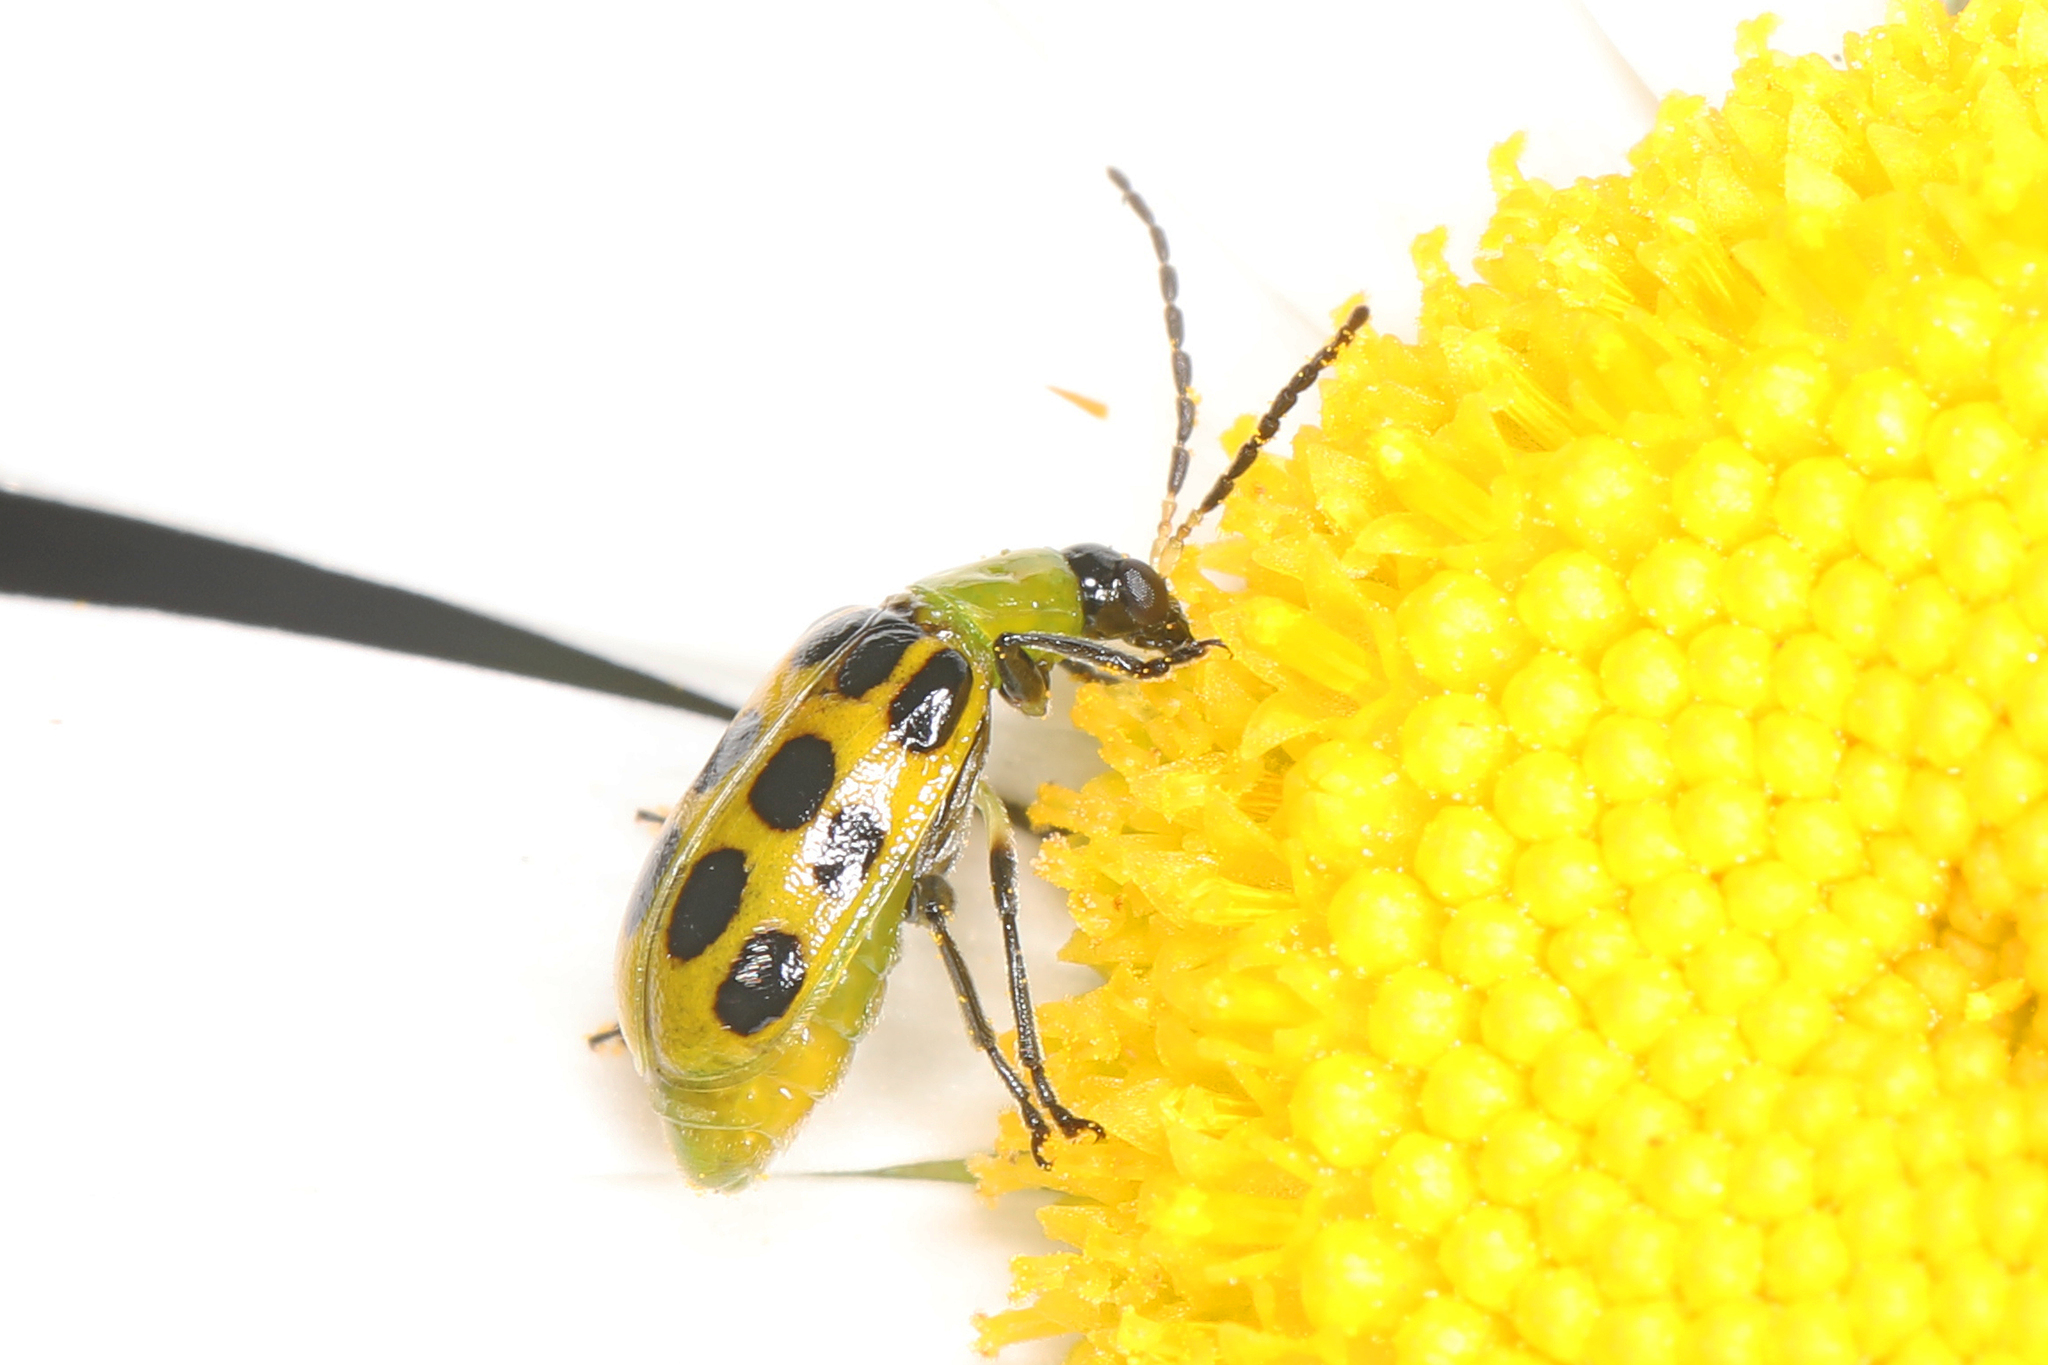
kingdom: Animalia
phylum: Arthropoda
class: Insecta
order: Coleoptera
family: Chrysomelidae
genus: Diabrotica
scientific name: Diabrotica undecimpunctata
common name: Spotted cucumber beetle
